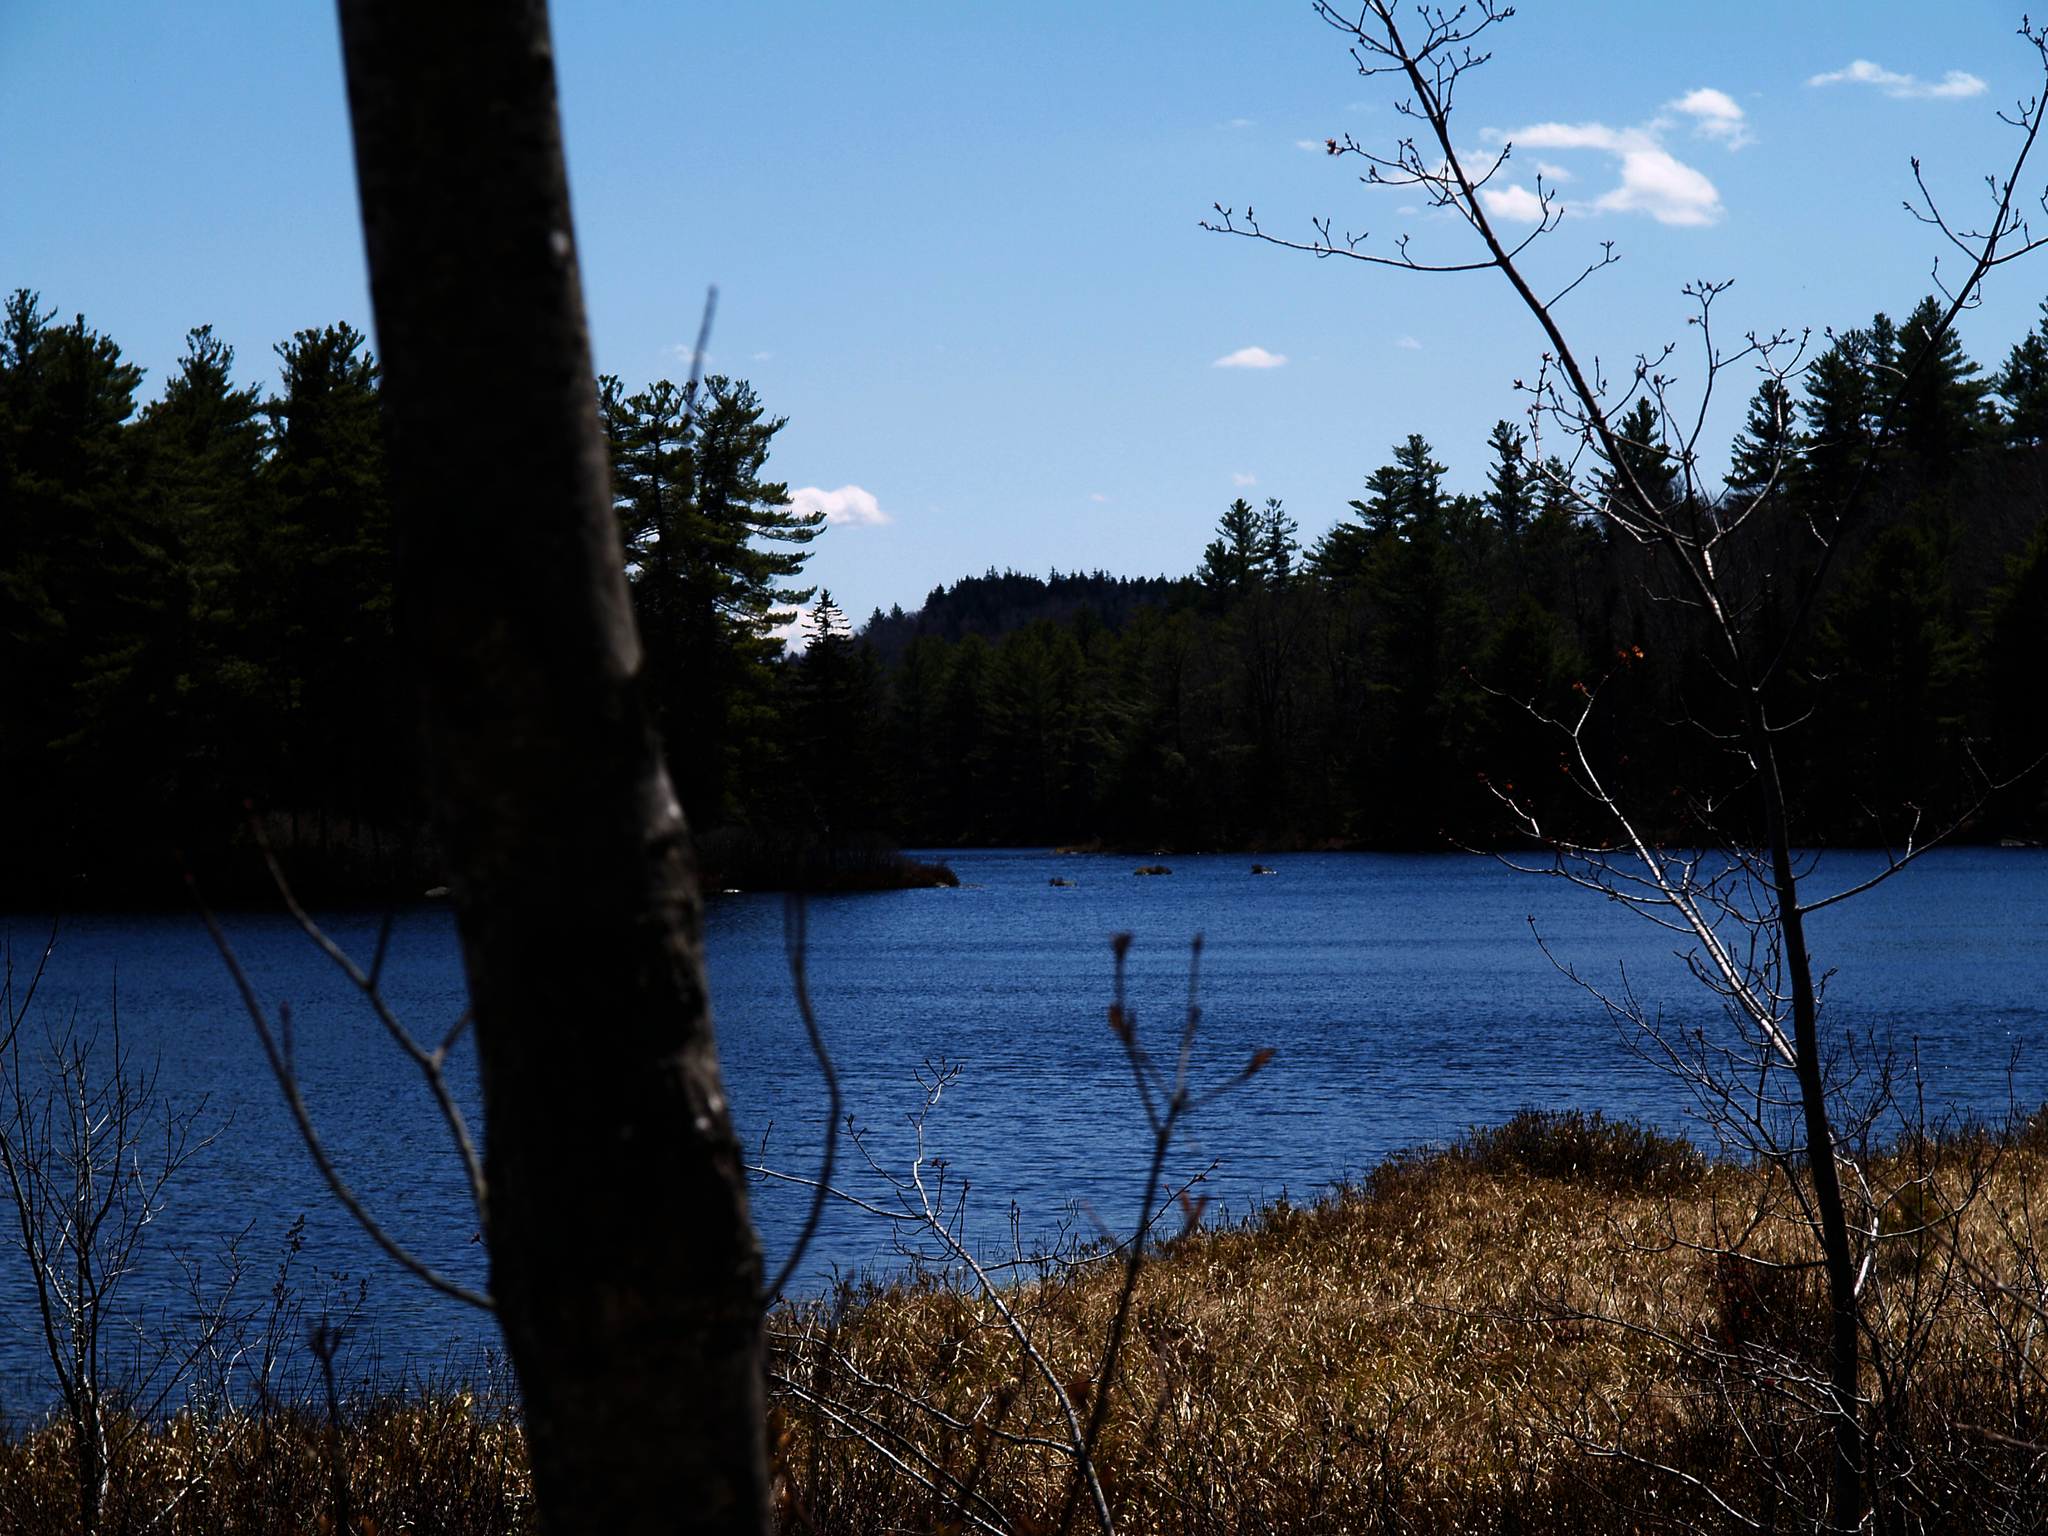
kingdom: Plantae
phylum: Tracheophyta
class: Pinopsida
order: Pinales
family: Pinaceae
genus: Pinus
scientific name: Pinus strobus
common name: Weymouth pine
